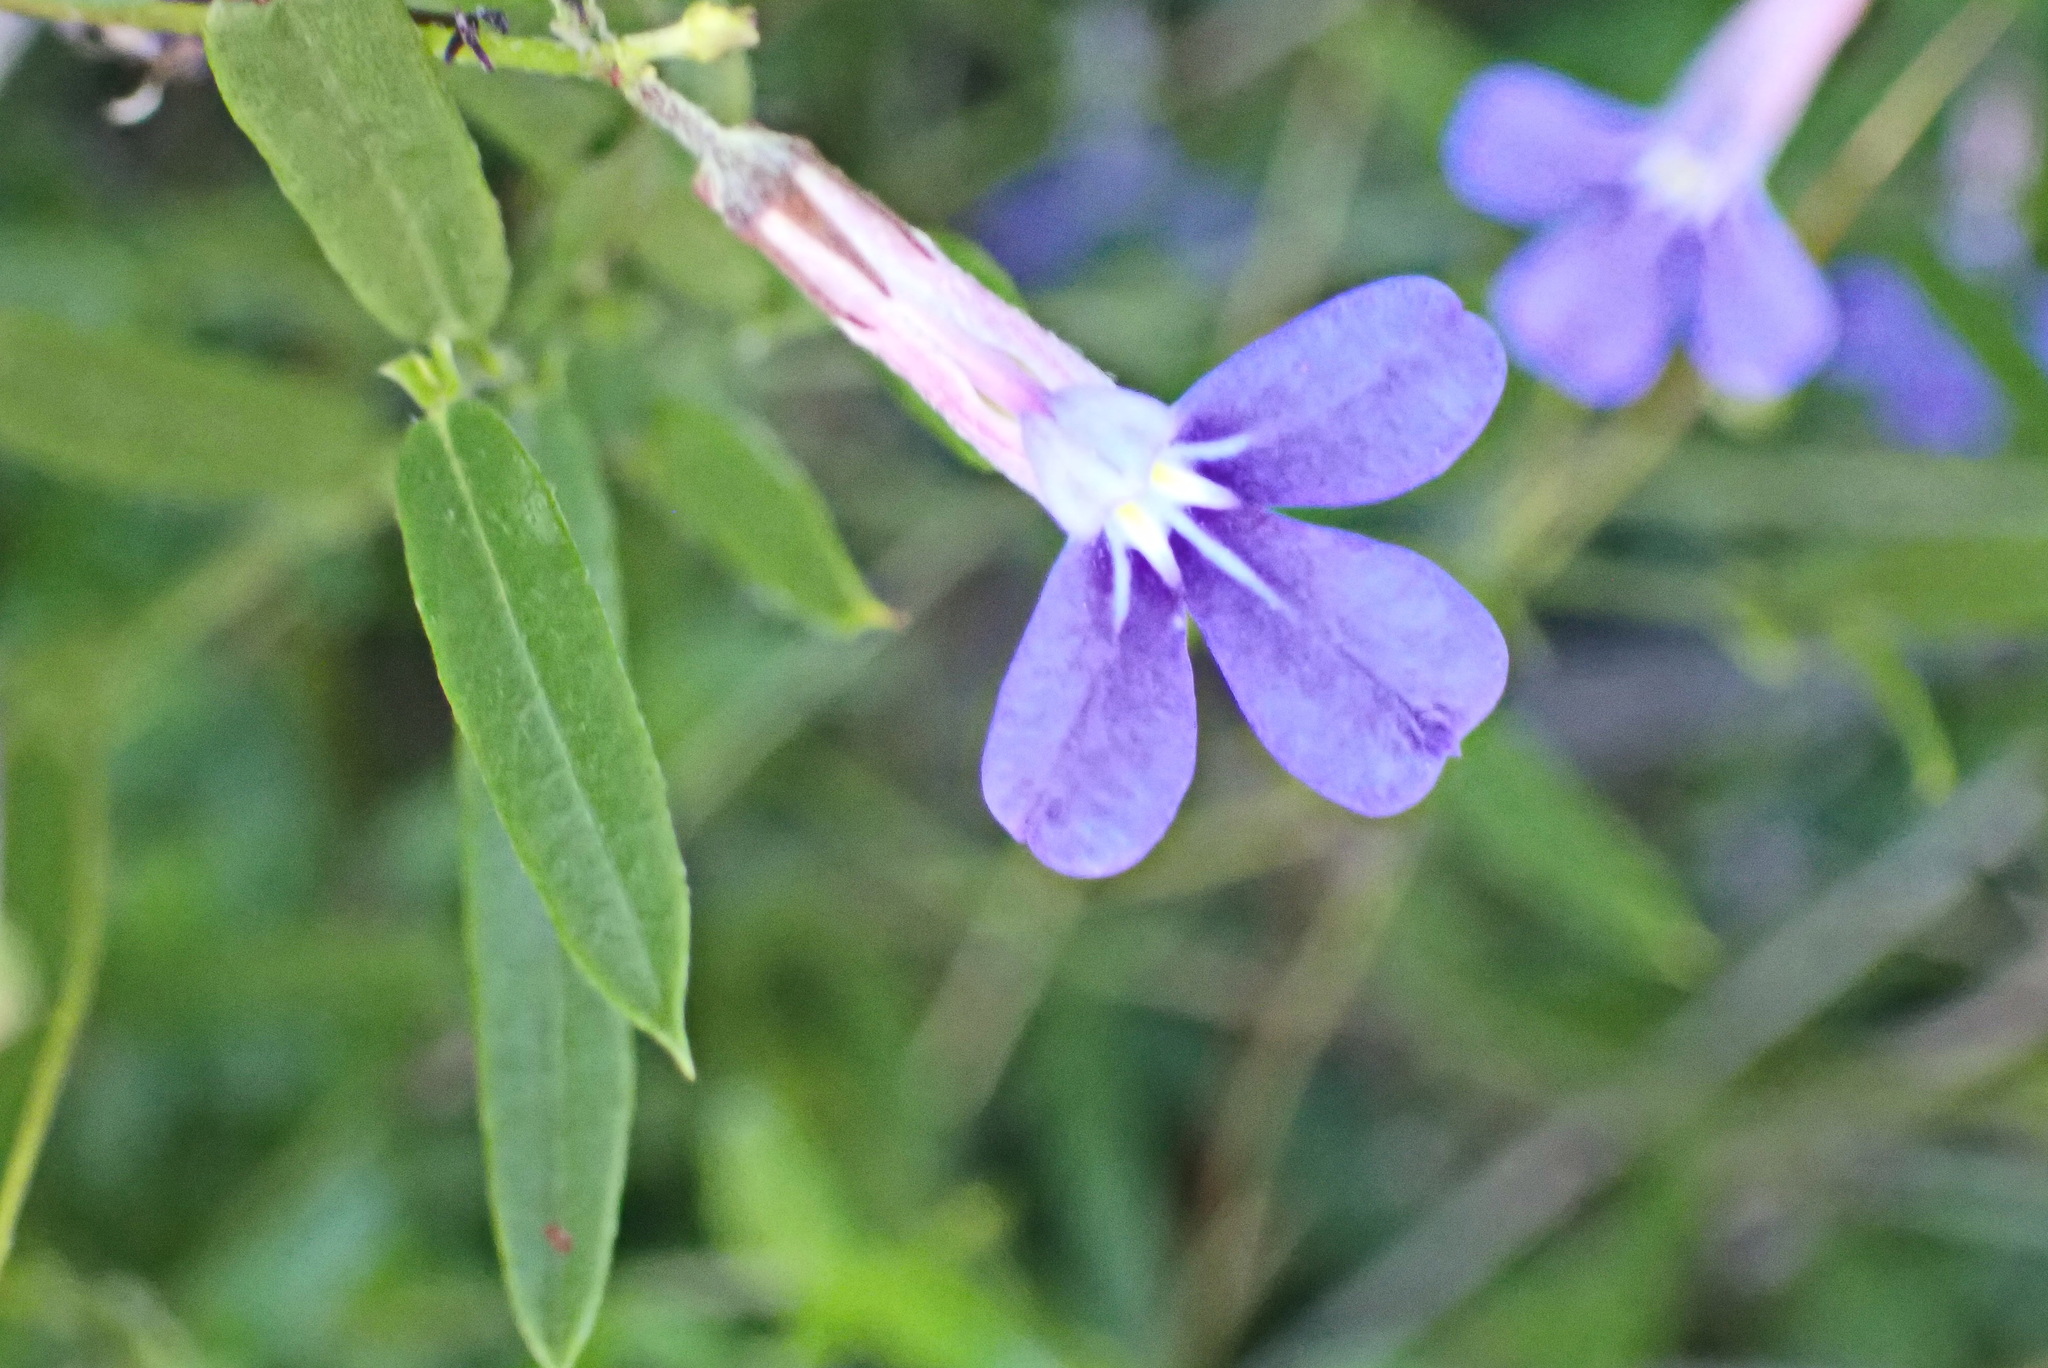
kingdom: Plantae
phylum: Tracheophyta
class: Magnoliopsida
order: Asterales
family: Campanulaceae
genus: Lobelia
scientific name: Lobelia neglecta
